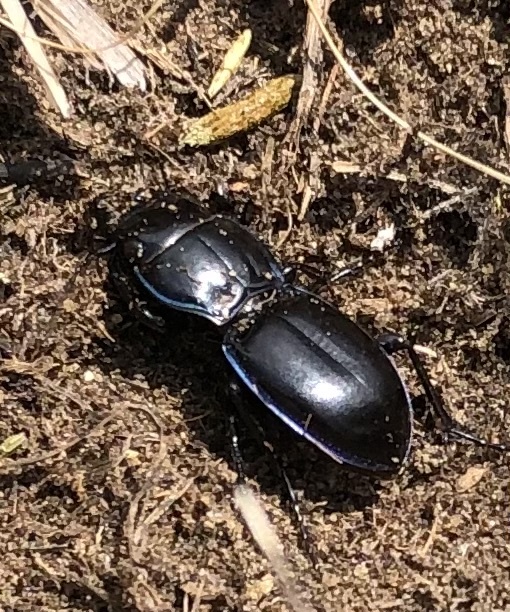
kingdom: Animalia
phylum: Arthropoda
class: Insecta
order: Coleoptera
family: Carabidae
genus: Pasimachus
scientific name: Pasimachus elongatus
